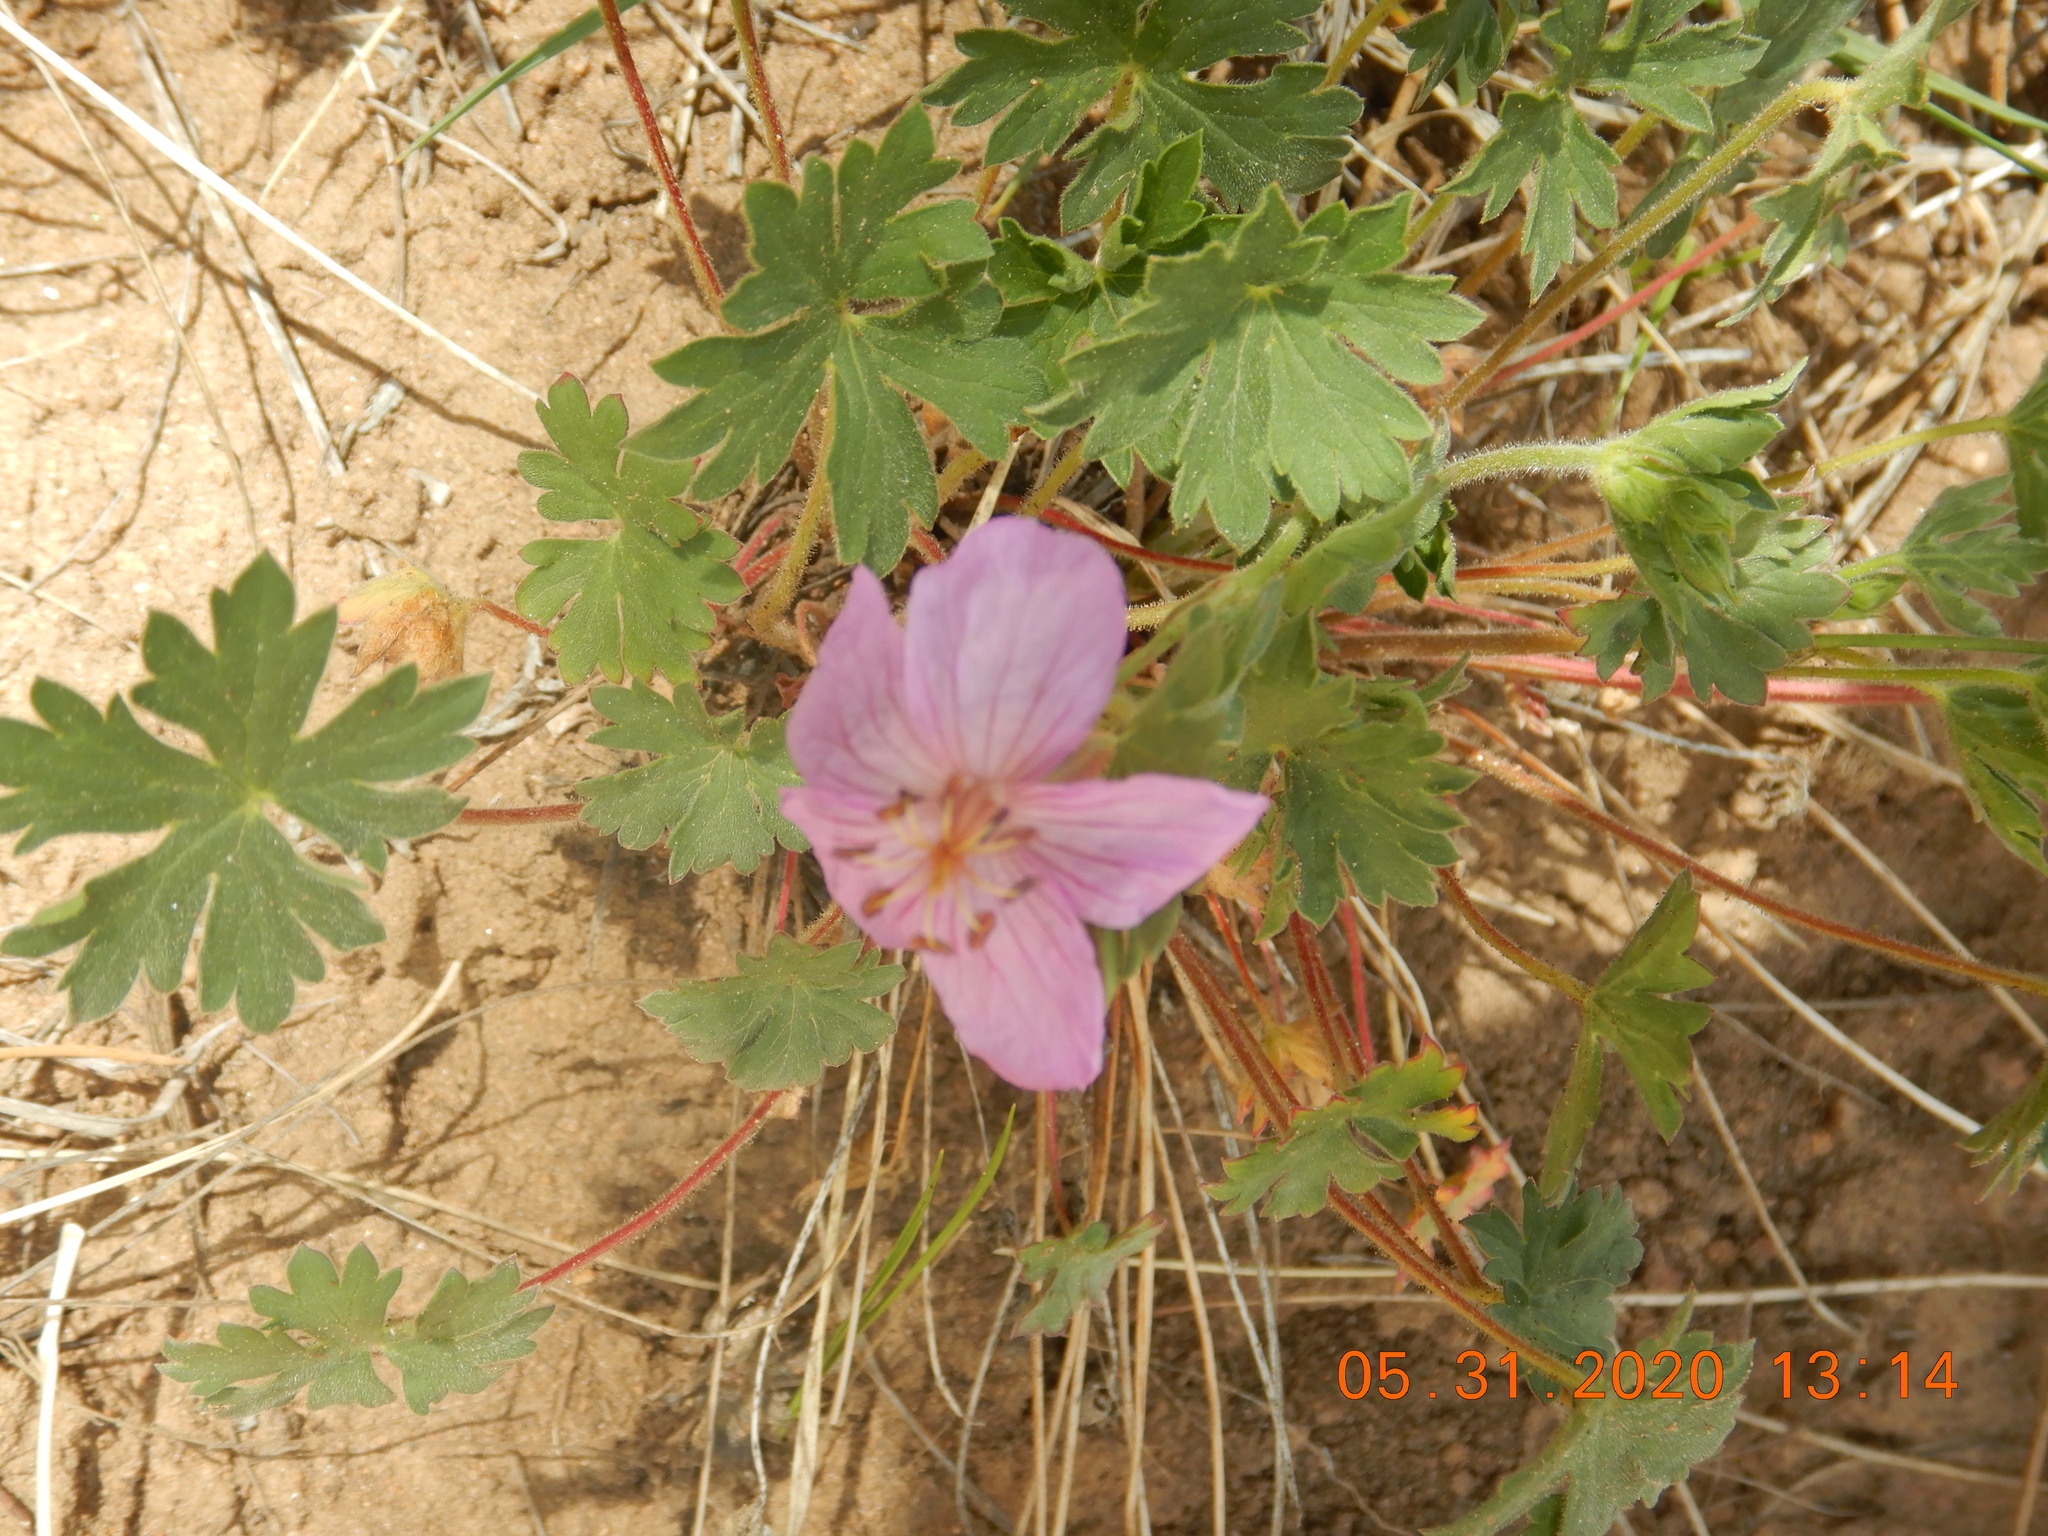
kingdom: Plantae
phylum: Tracheophyta
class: Magnoliopsida
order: Geraniales
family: Geraniaceae
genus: Geranium
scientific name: Geranium caespitosum
